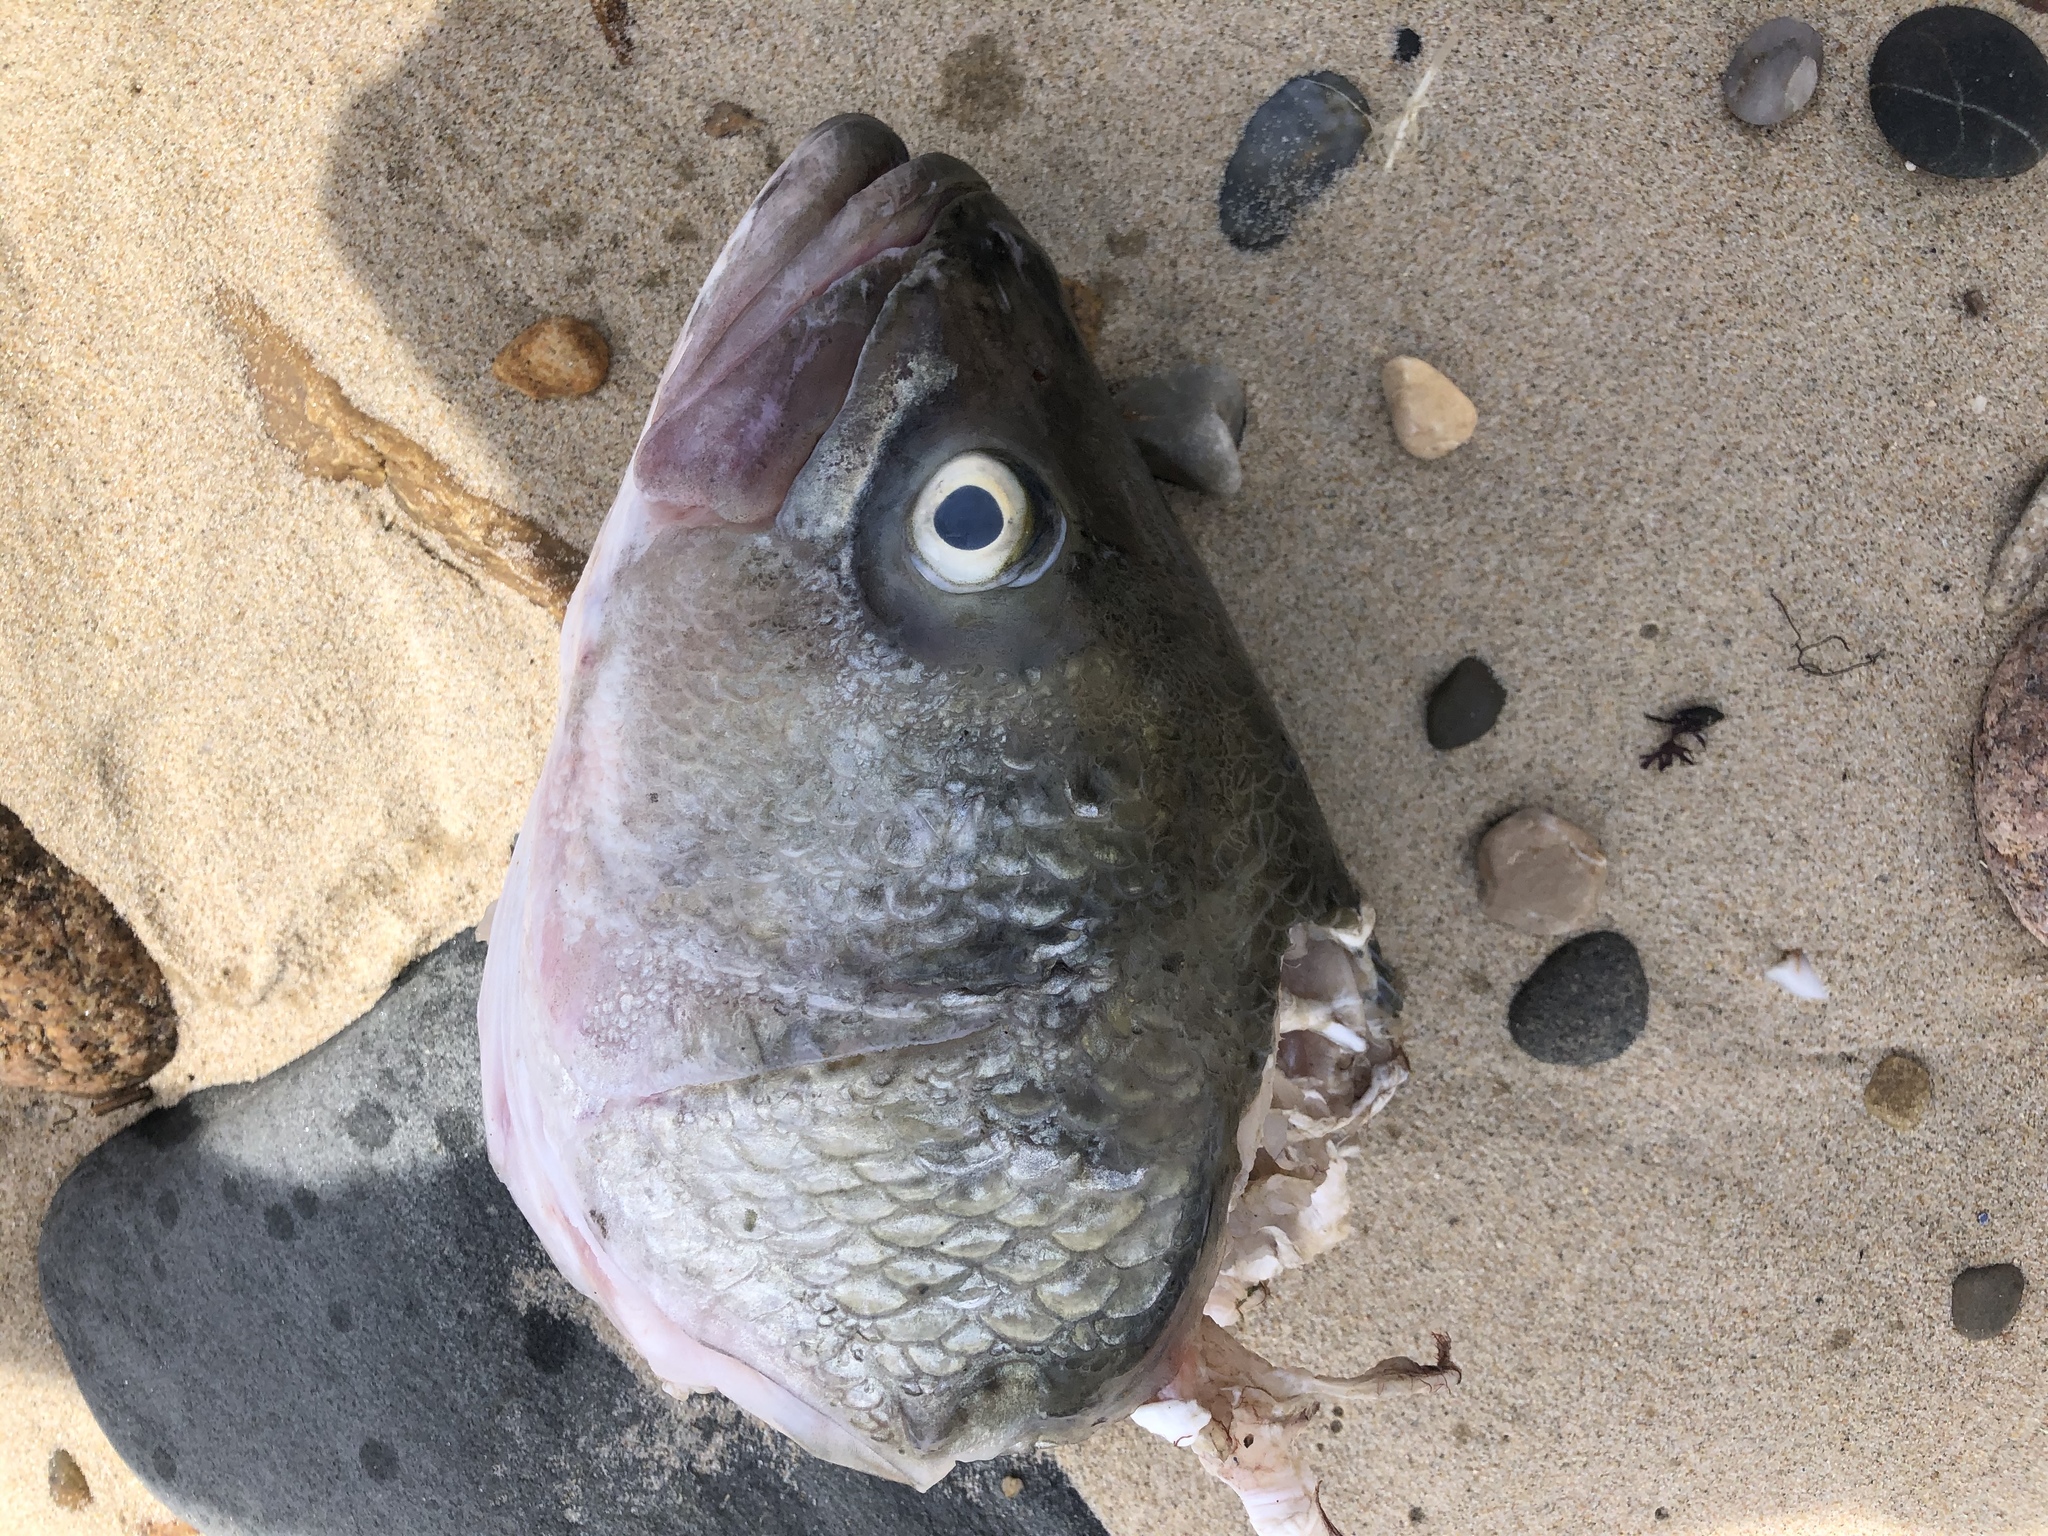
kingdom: Animalia
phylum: Chordata
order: Perciformes
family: Moronidae
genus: Morone
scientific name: Morone saxatilis
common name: Striped bass
